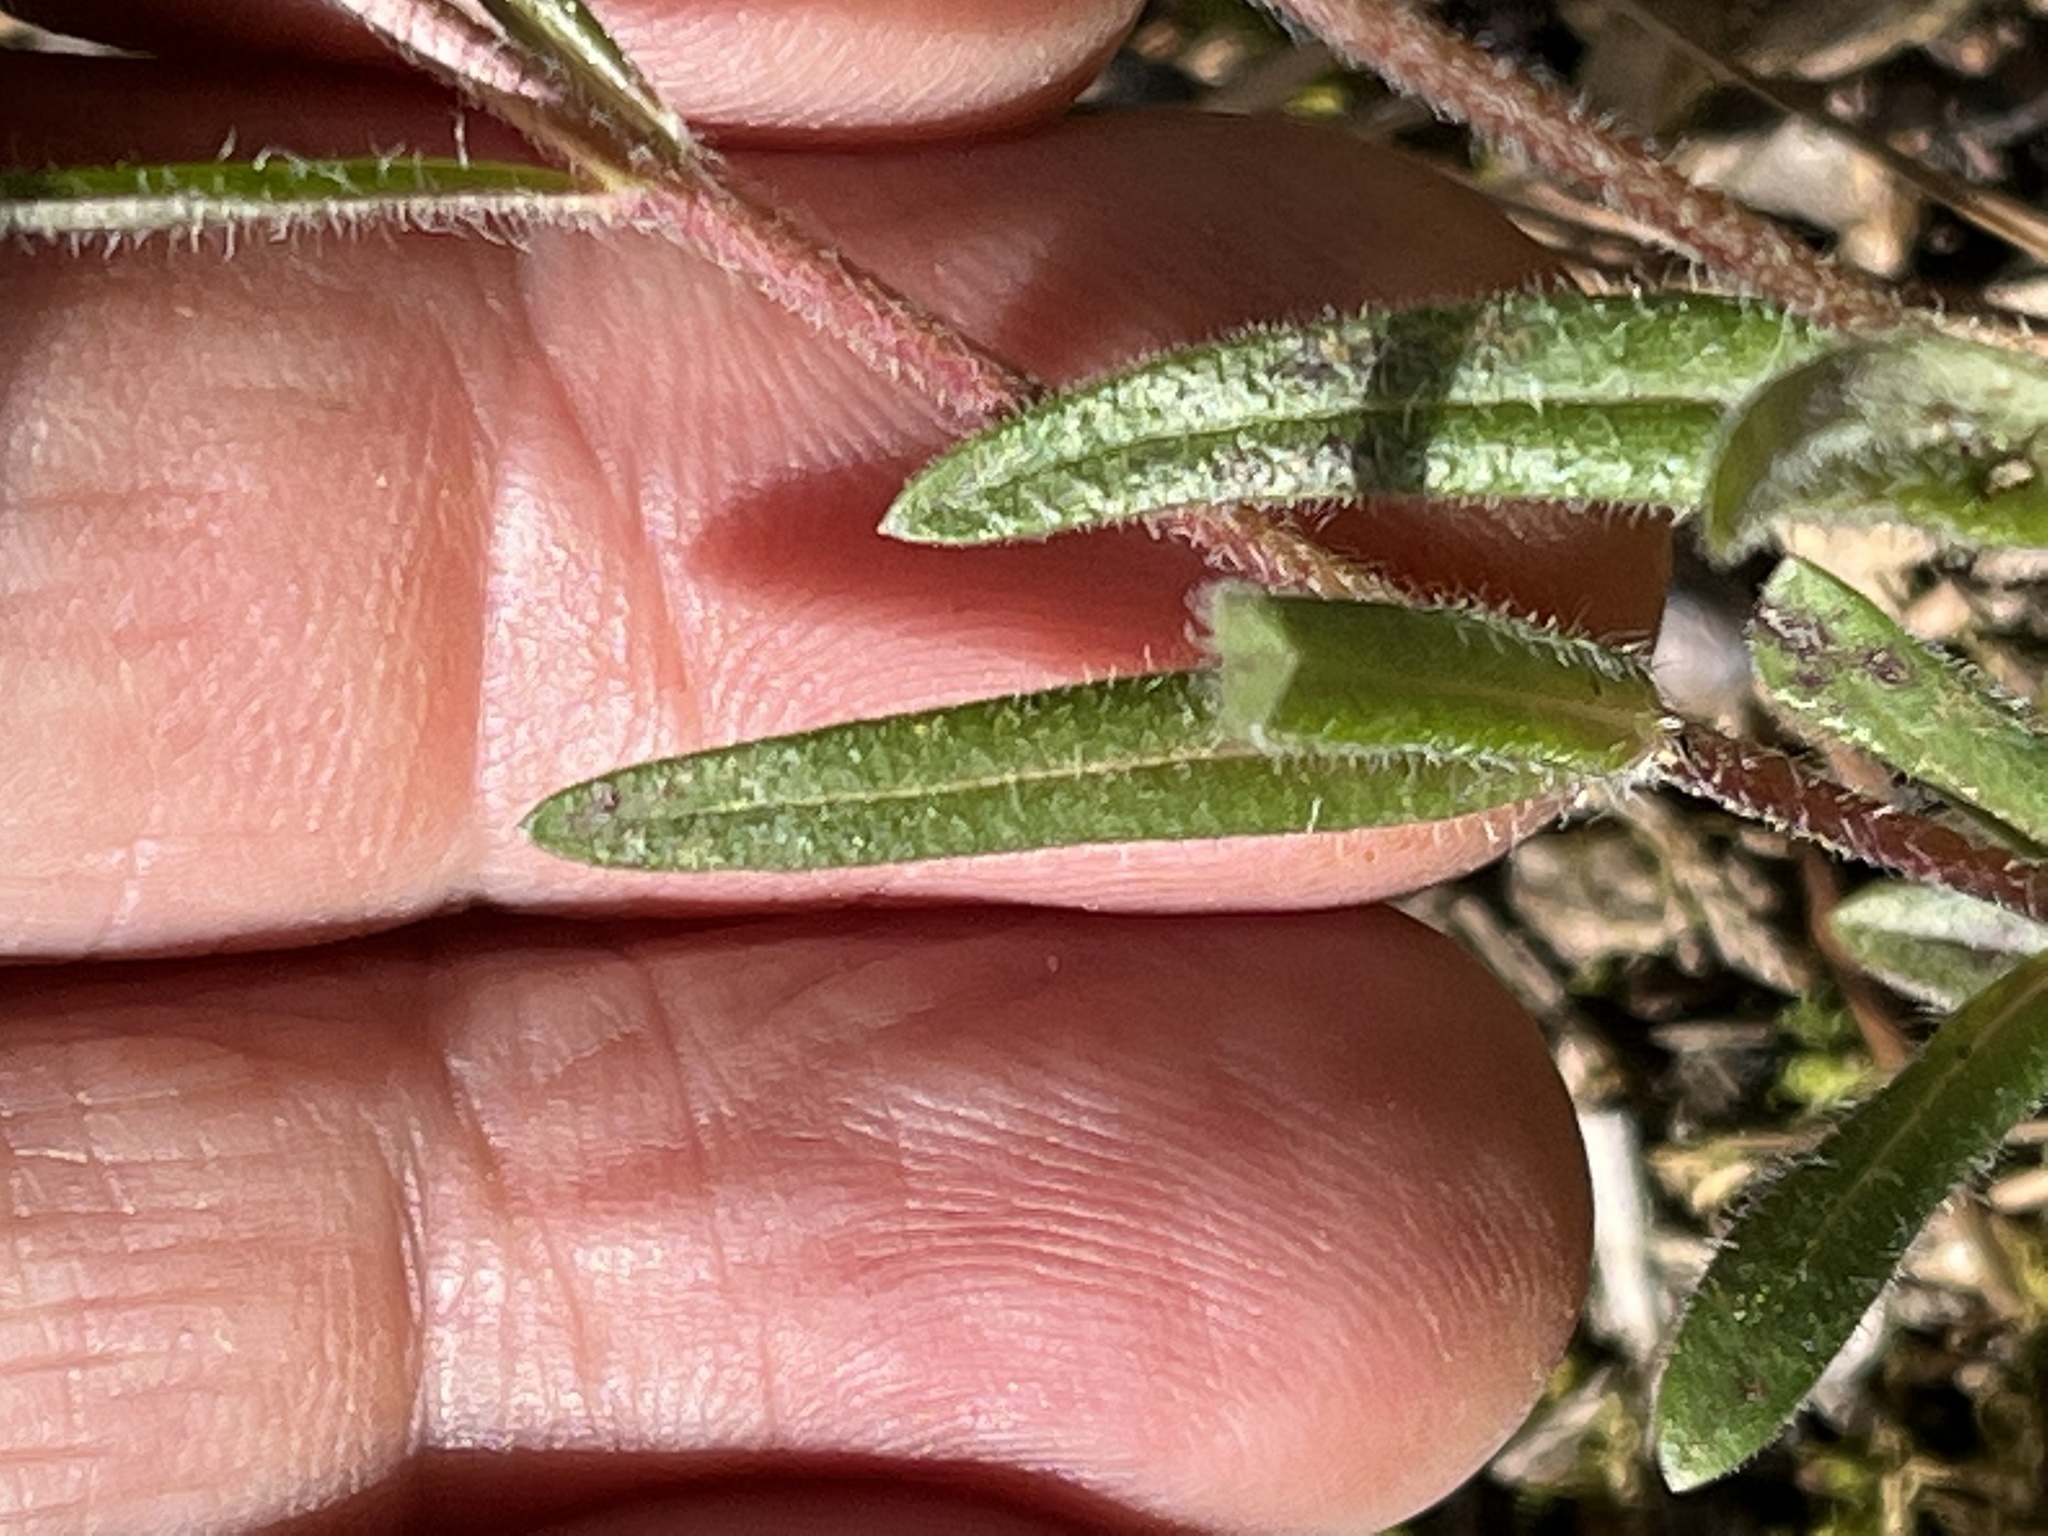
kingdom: Plantae
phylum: Tracheophyta
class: Magnoliopsida
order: Ericales
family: Polemoniaceae
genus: Phlox
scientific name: Phlox amoena
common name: Hairy phlox
